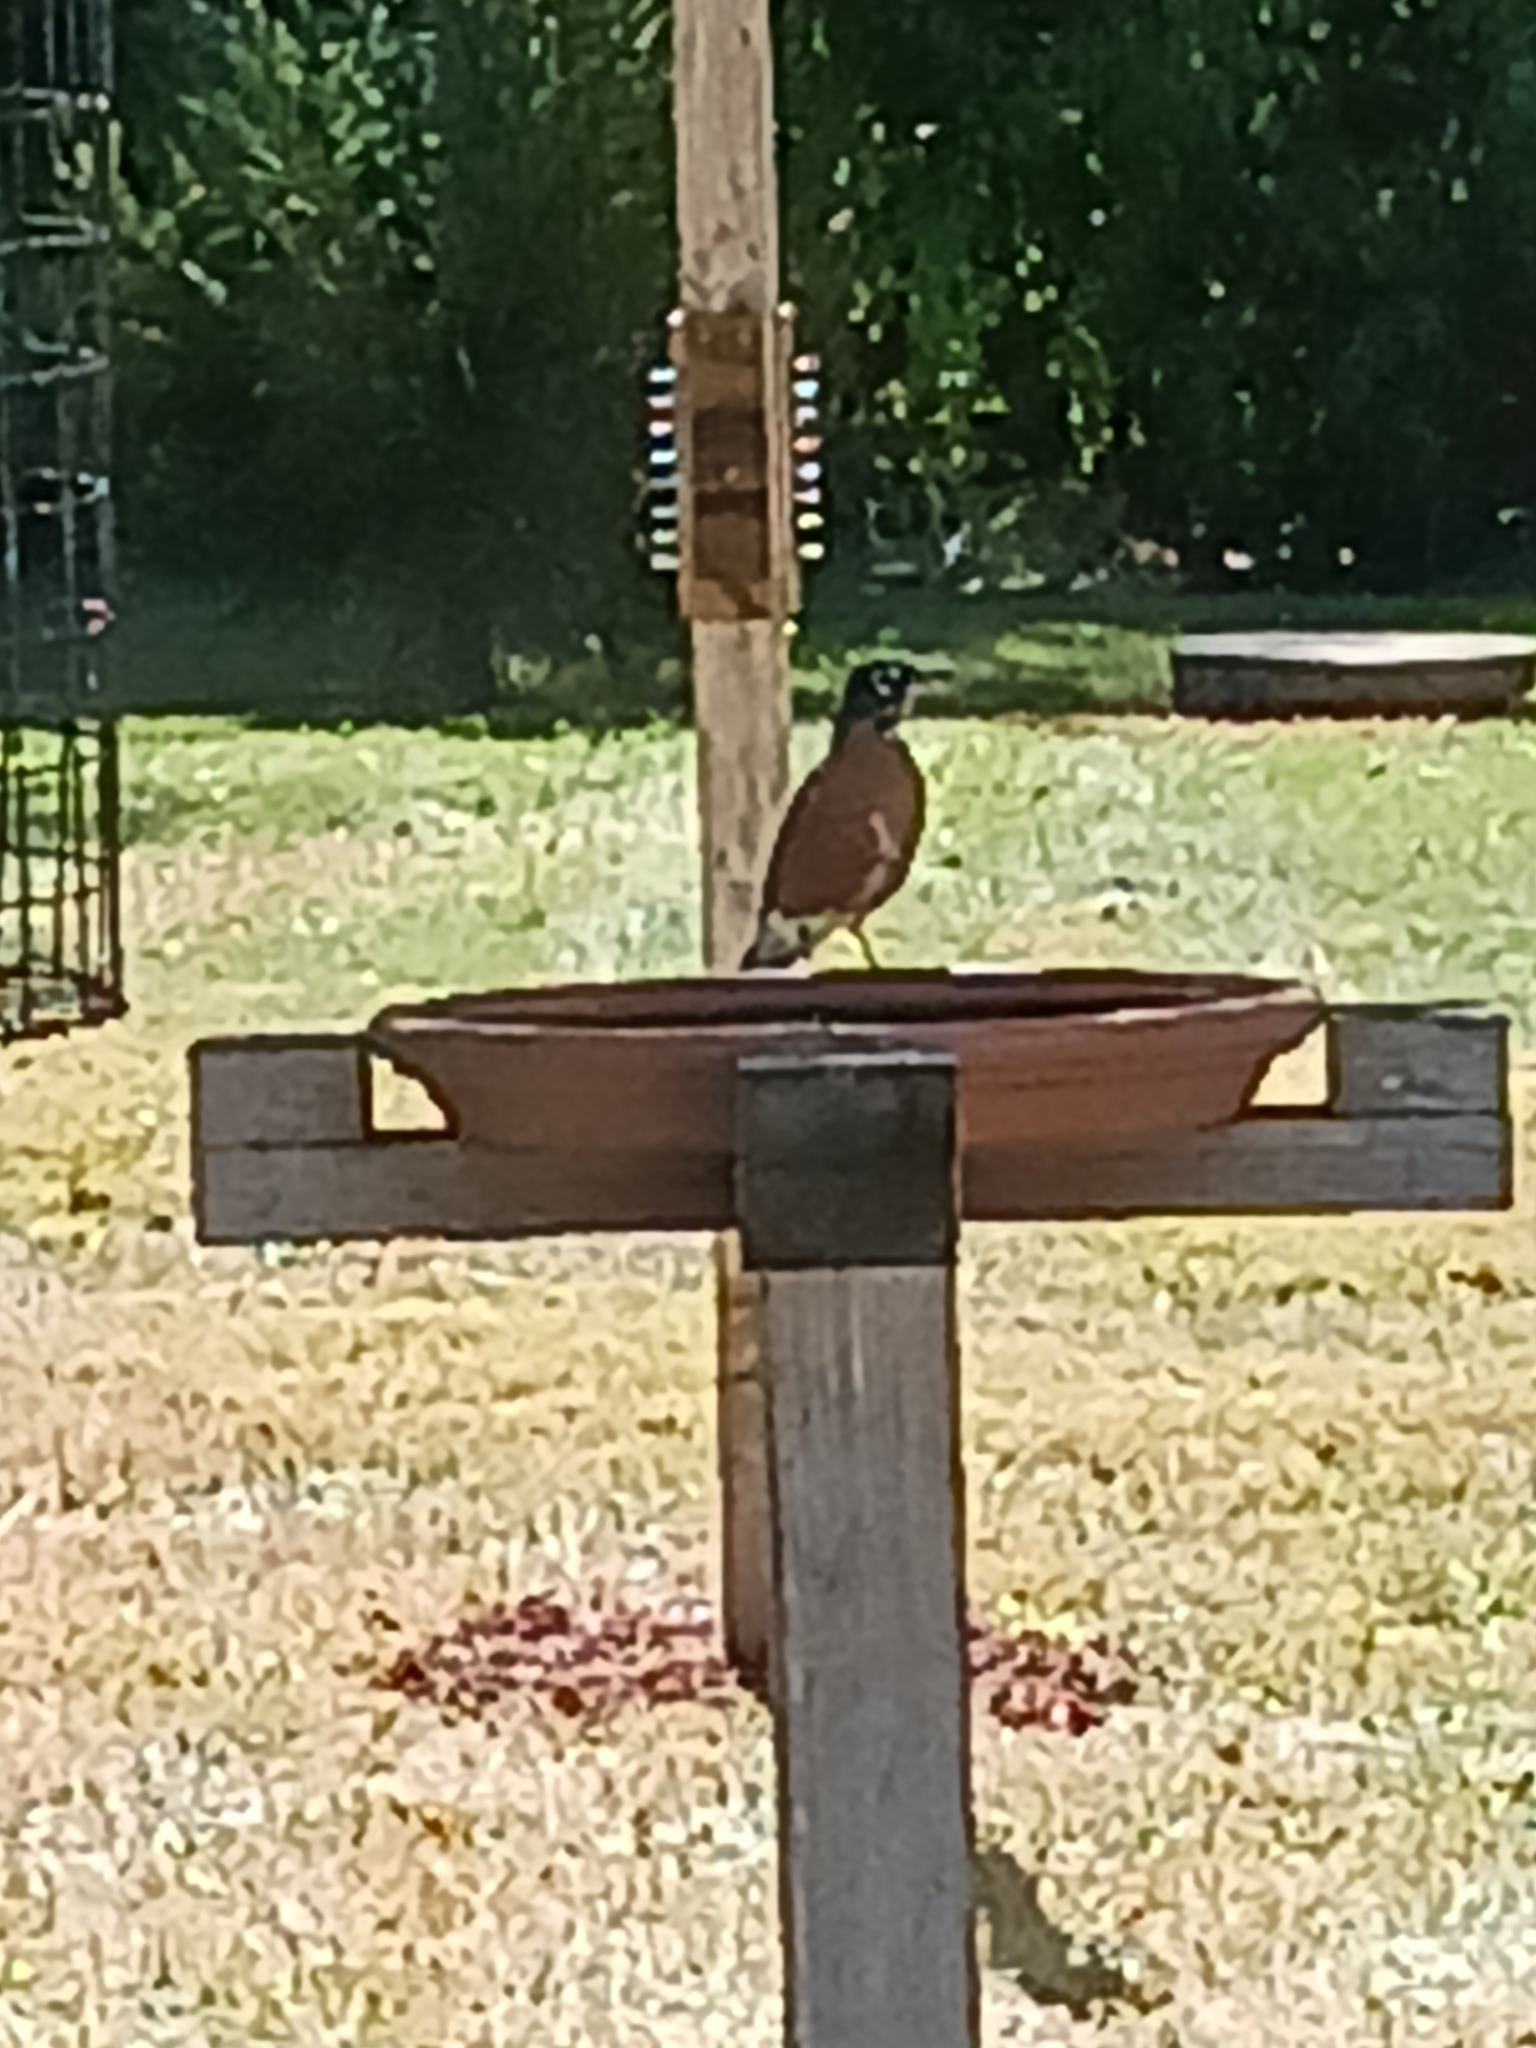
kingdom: Animalia
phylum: Chordata
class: Aves
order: Passeriformes
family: Turdidae
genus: Turdus
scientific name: Turdus migratorius
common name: American robin
